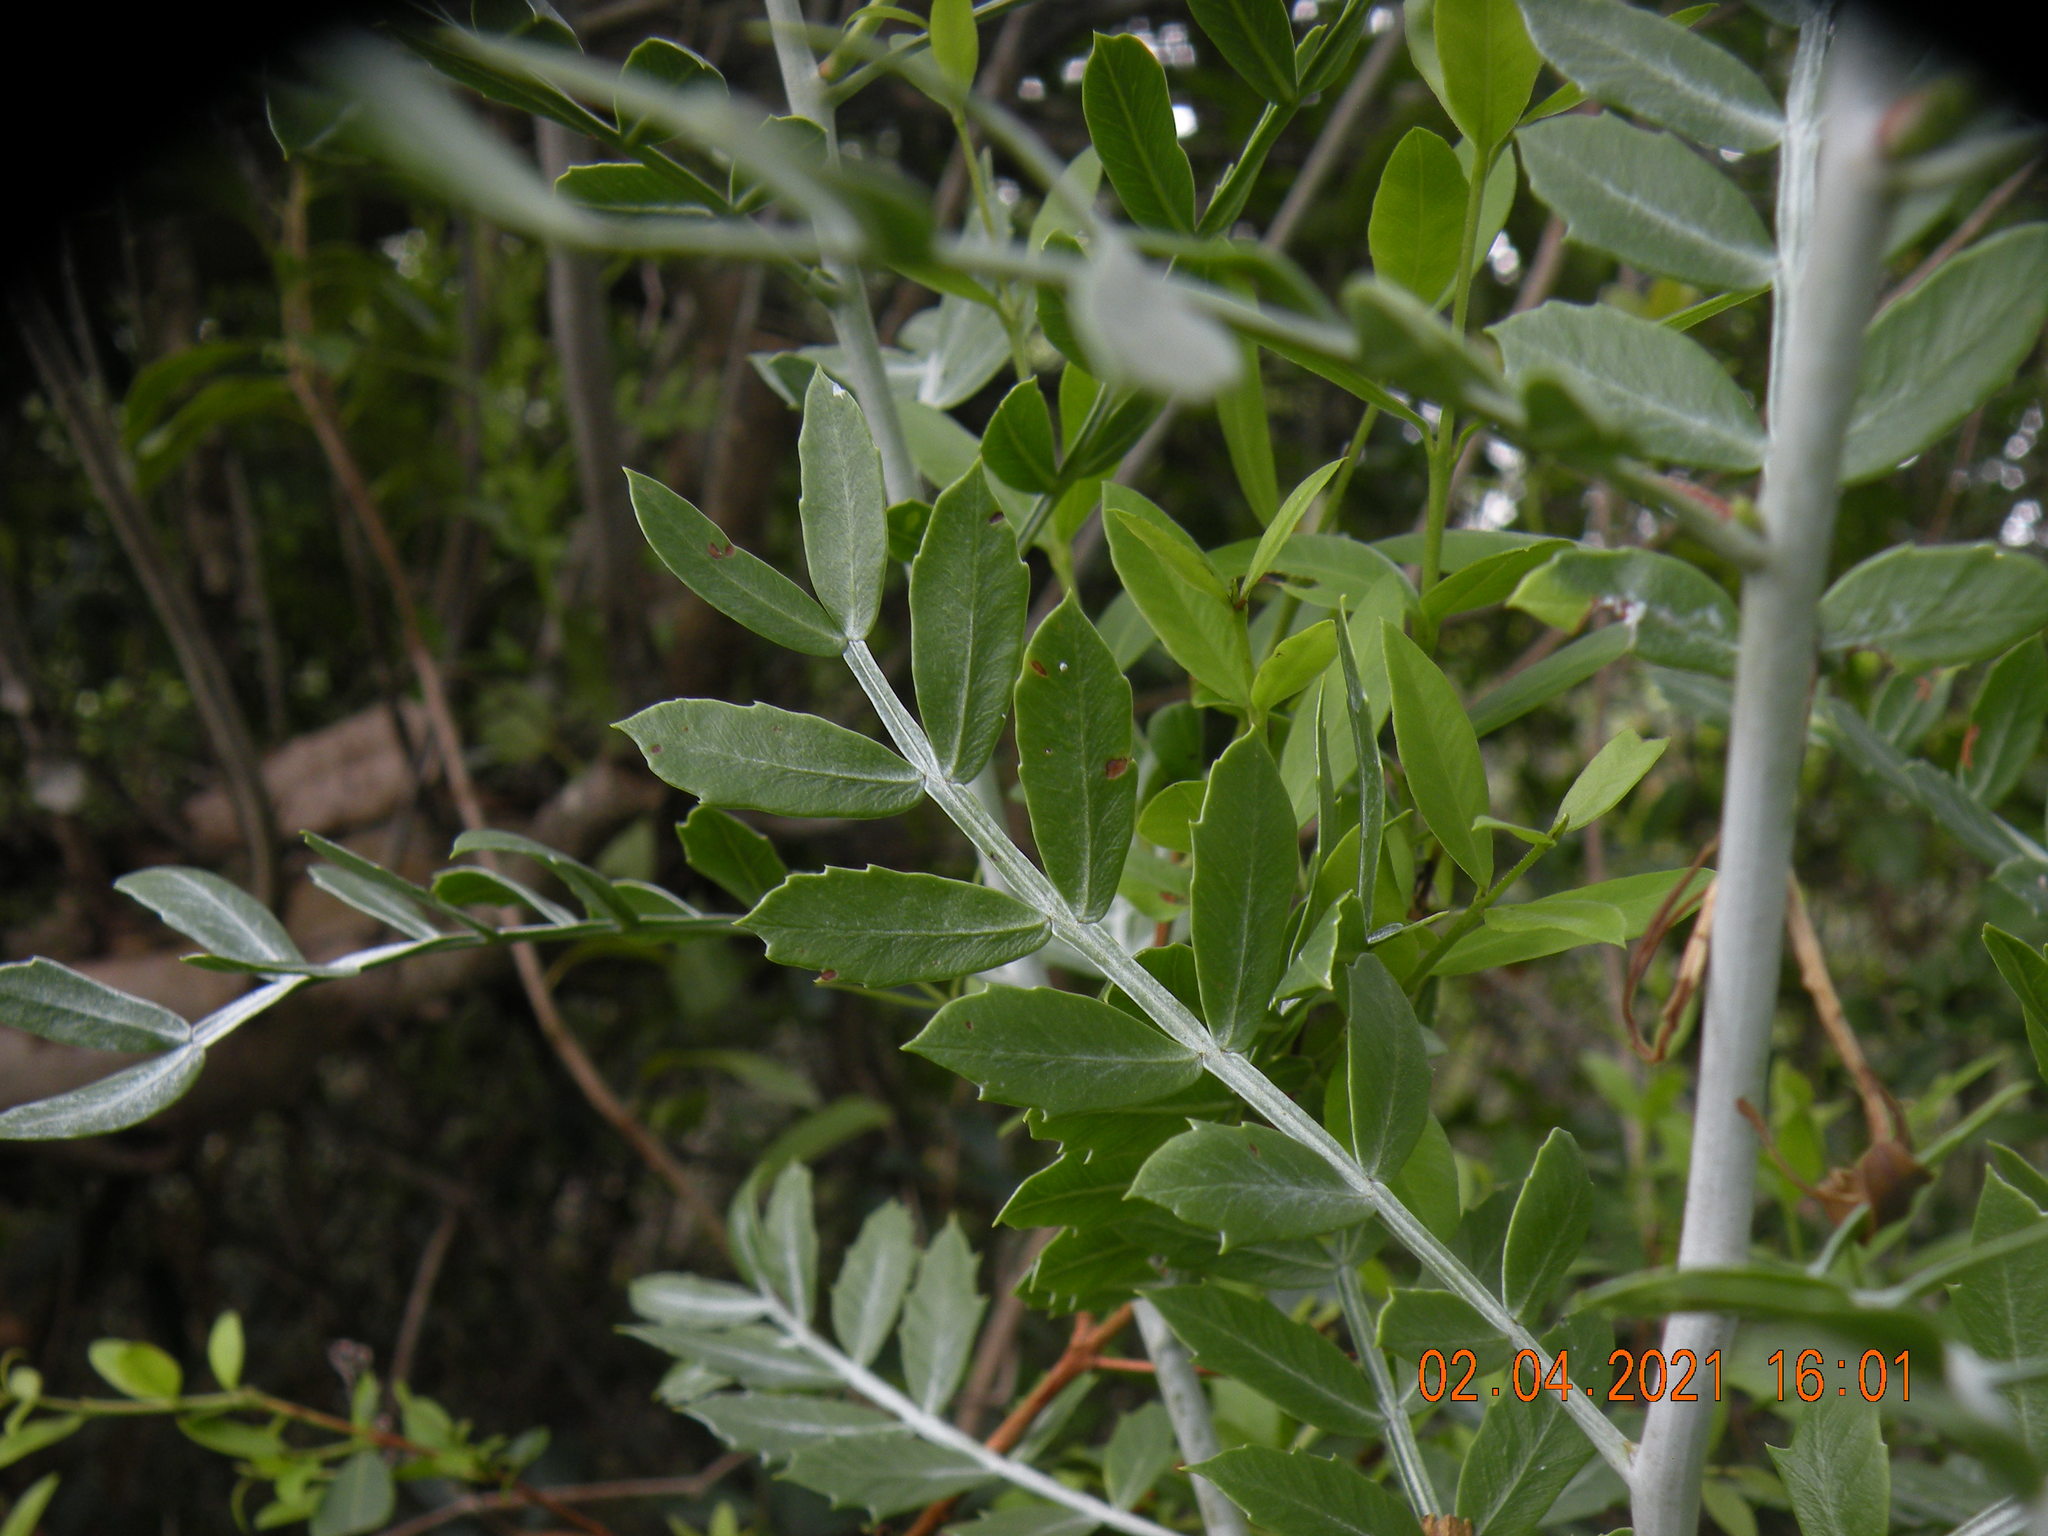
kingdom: Plantae
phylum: Tracheophyta
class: Magnoliopsida
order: Sapindales
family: Anacardiaceae
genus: Schinus
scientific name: Schinus lentiscifolia
